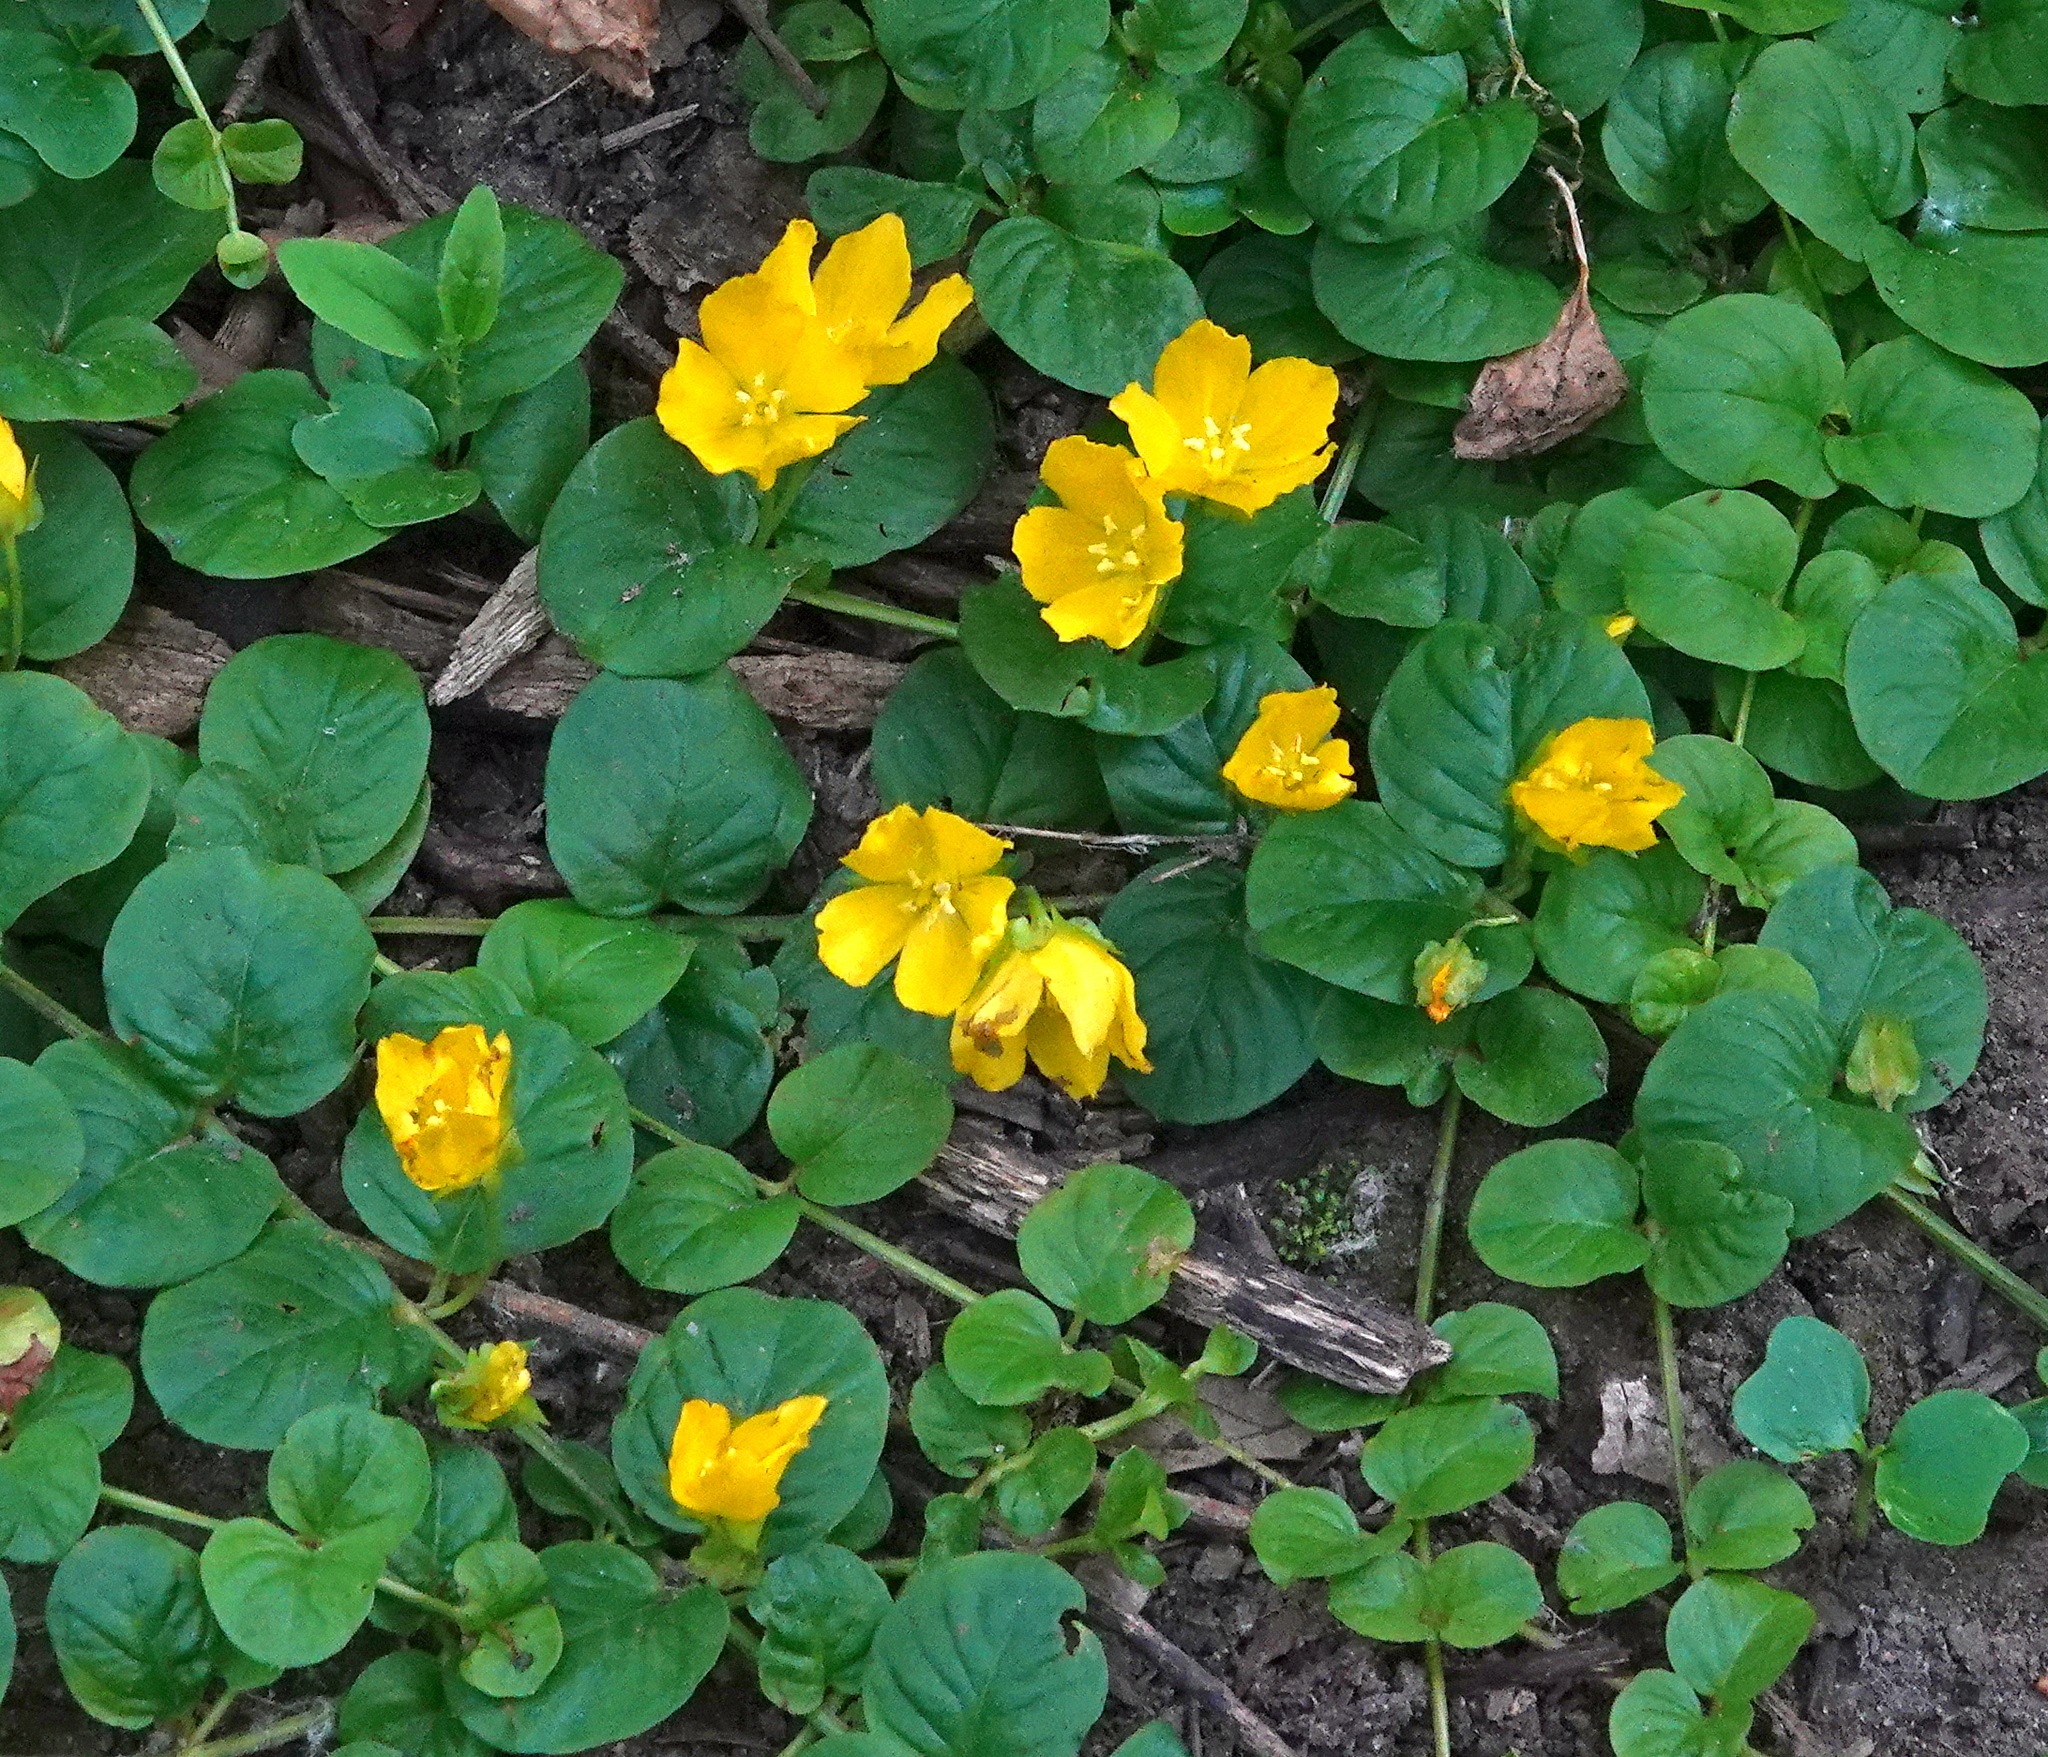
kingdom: Plantae
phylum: Tracheophyta
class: Magnoliopsida
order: Ericales
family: Primulaceae
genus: Lysimachia
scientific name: Lysimachia nummularia
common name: Moneywort
